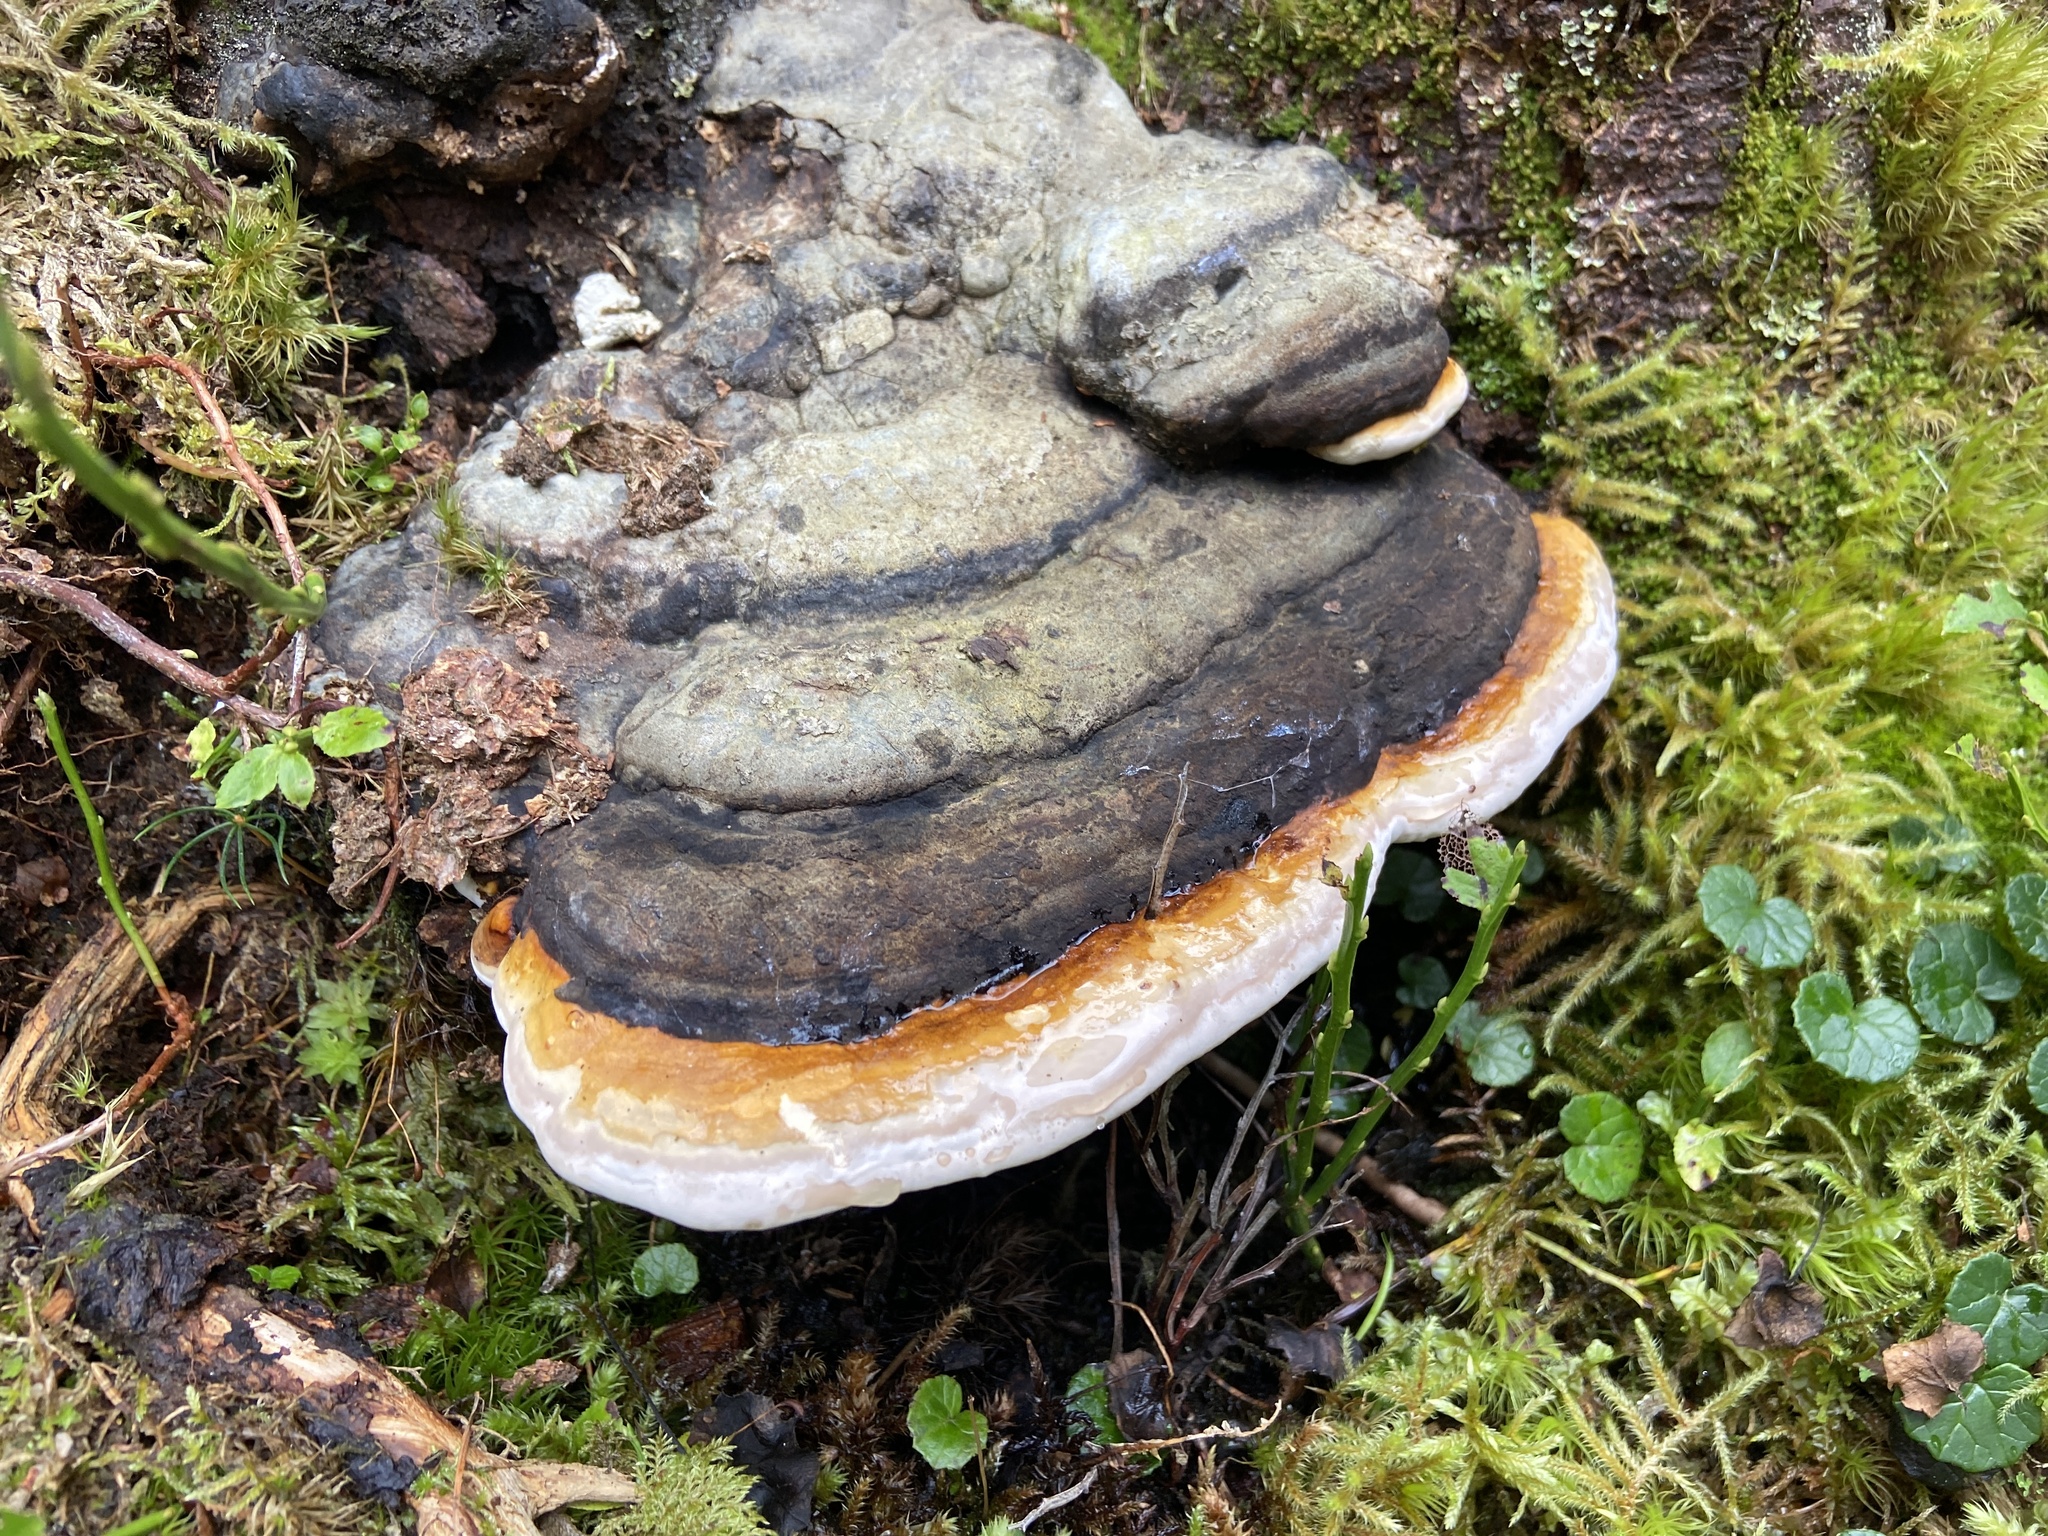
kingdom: Fungi
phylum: Basidiomycota
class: Agaricomycetes
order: Polyporales
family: Fomitopsidaceae
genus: Fomitopsis
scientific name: Fomitopsis pinicola
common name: Red-belted bracket
